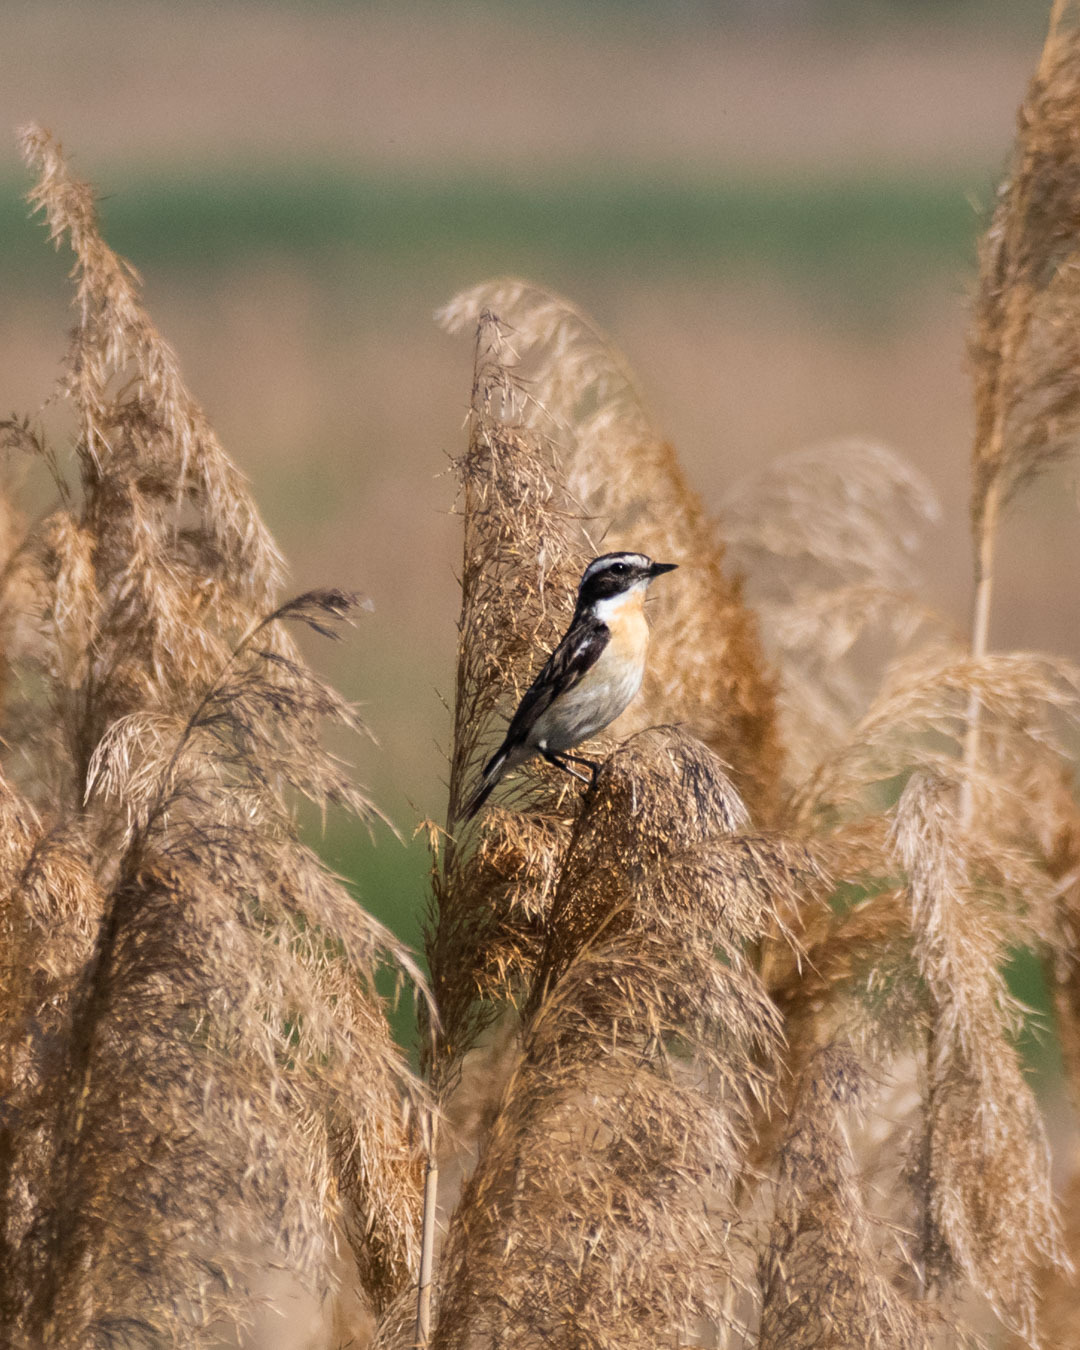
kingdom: Animalia
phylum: Chordata
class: Aves
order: Passeriformes
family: Muscicapidae
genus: Saxicola
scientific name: Saxicola rubetra
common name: Whinchat
